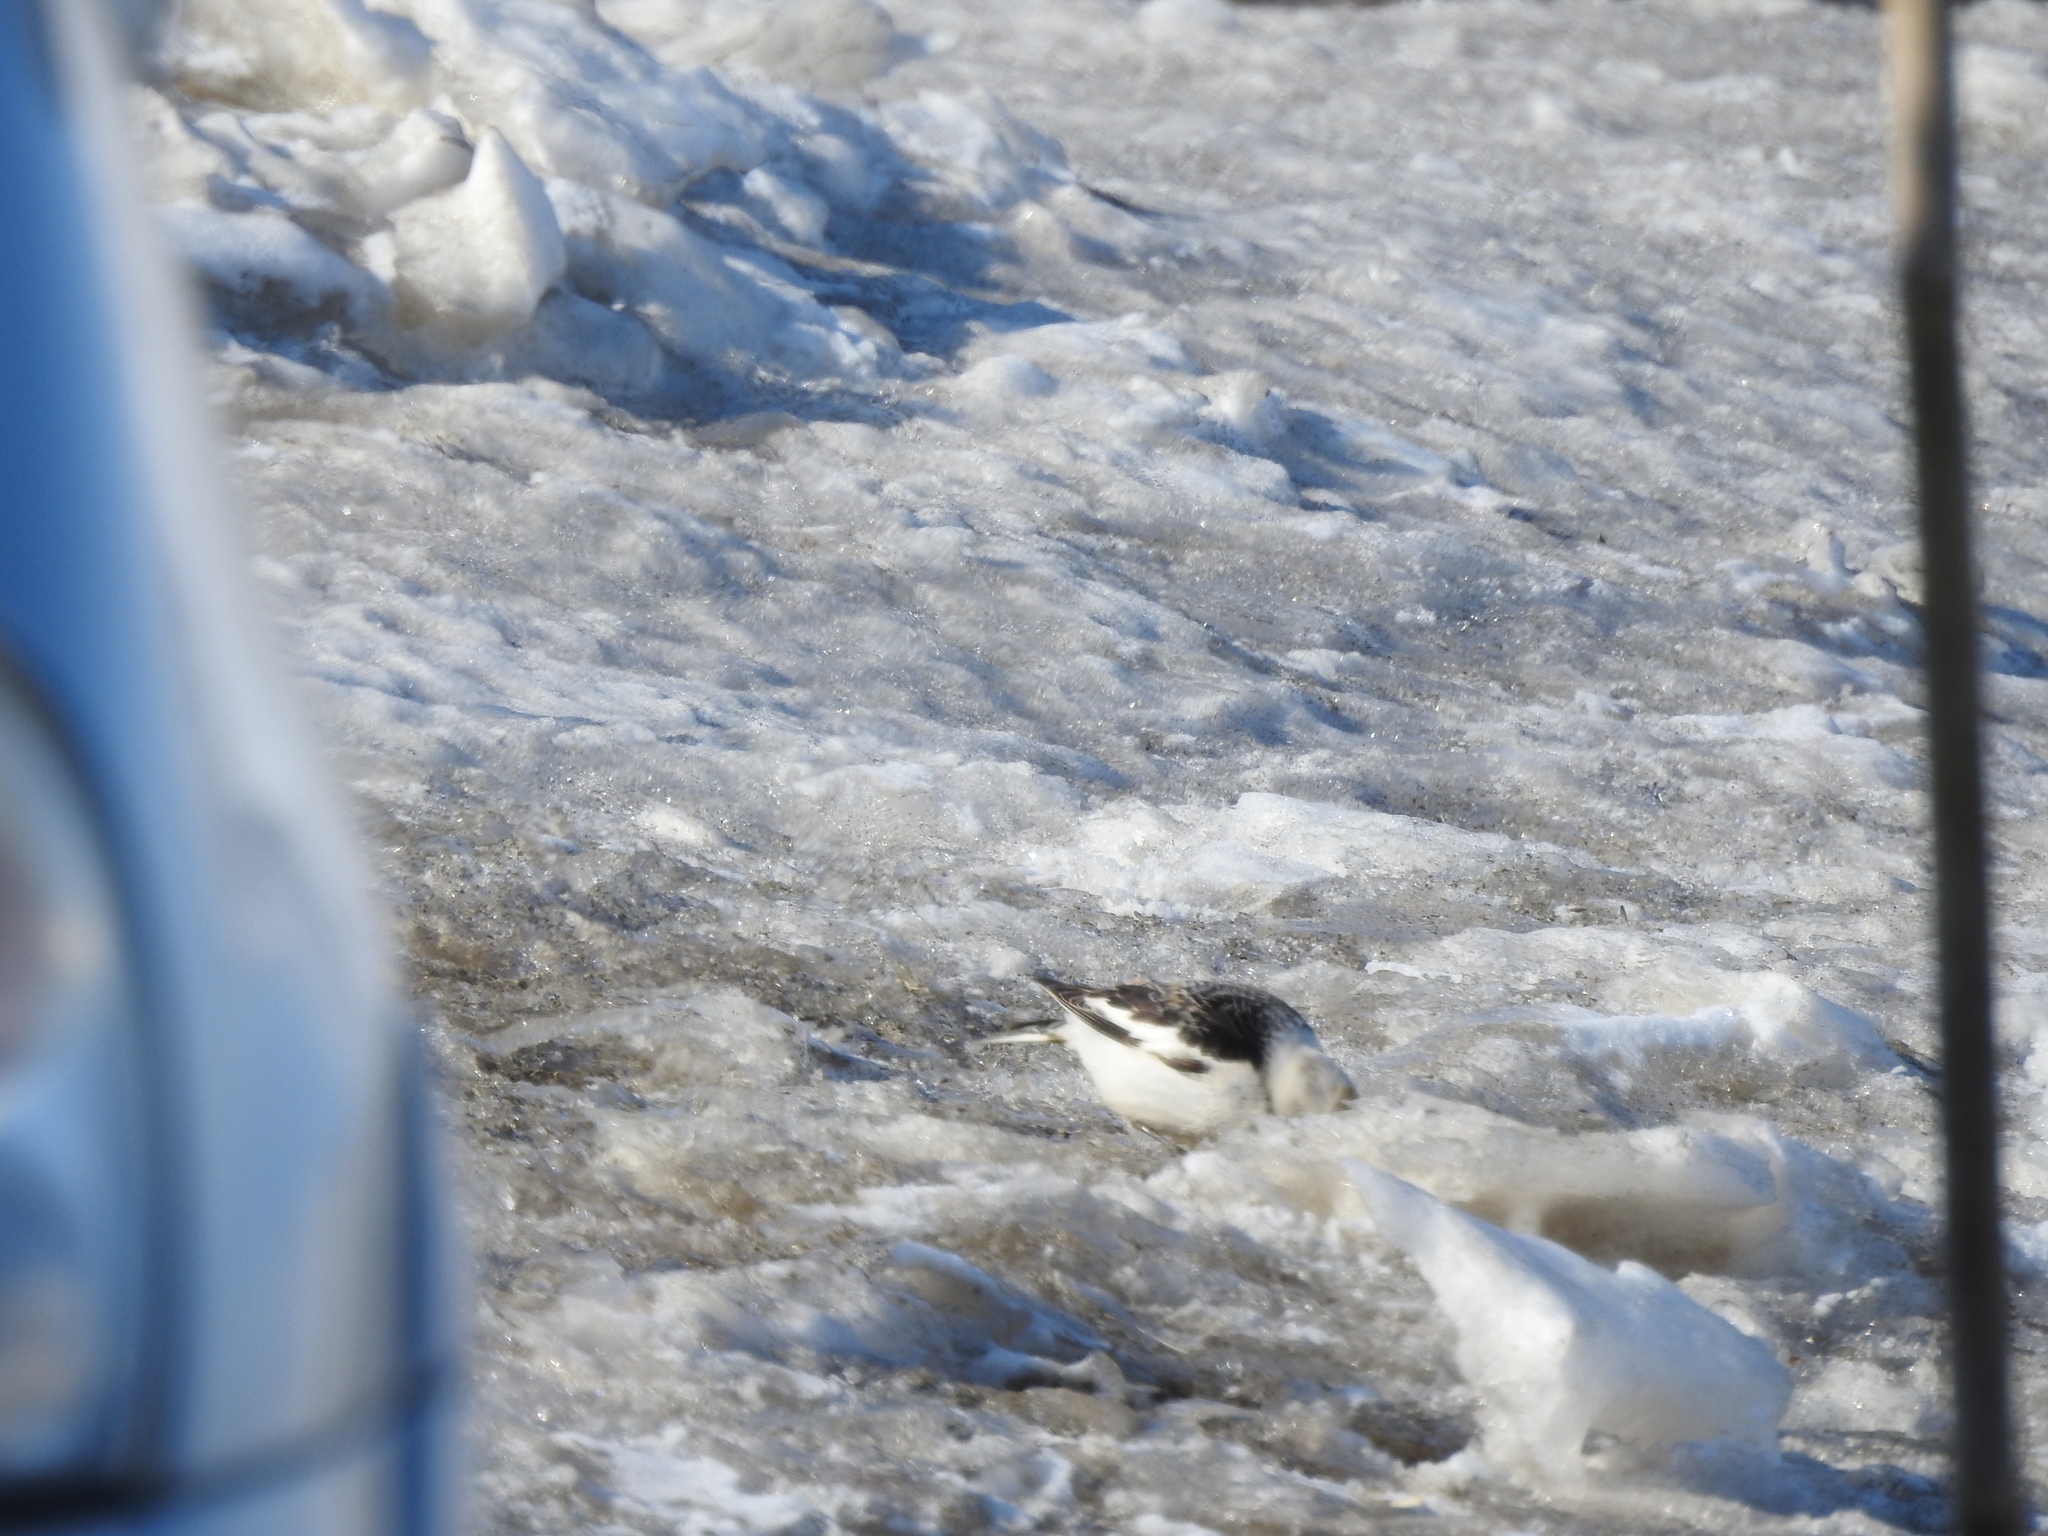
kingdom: Animalia
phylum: Chordata
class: Aves
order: Passeriformes
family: Calcariidae
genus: Plectrophenax
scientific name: Plectrophenax nivalis
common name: Snow bunting
